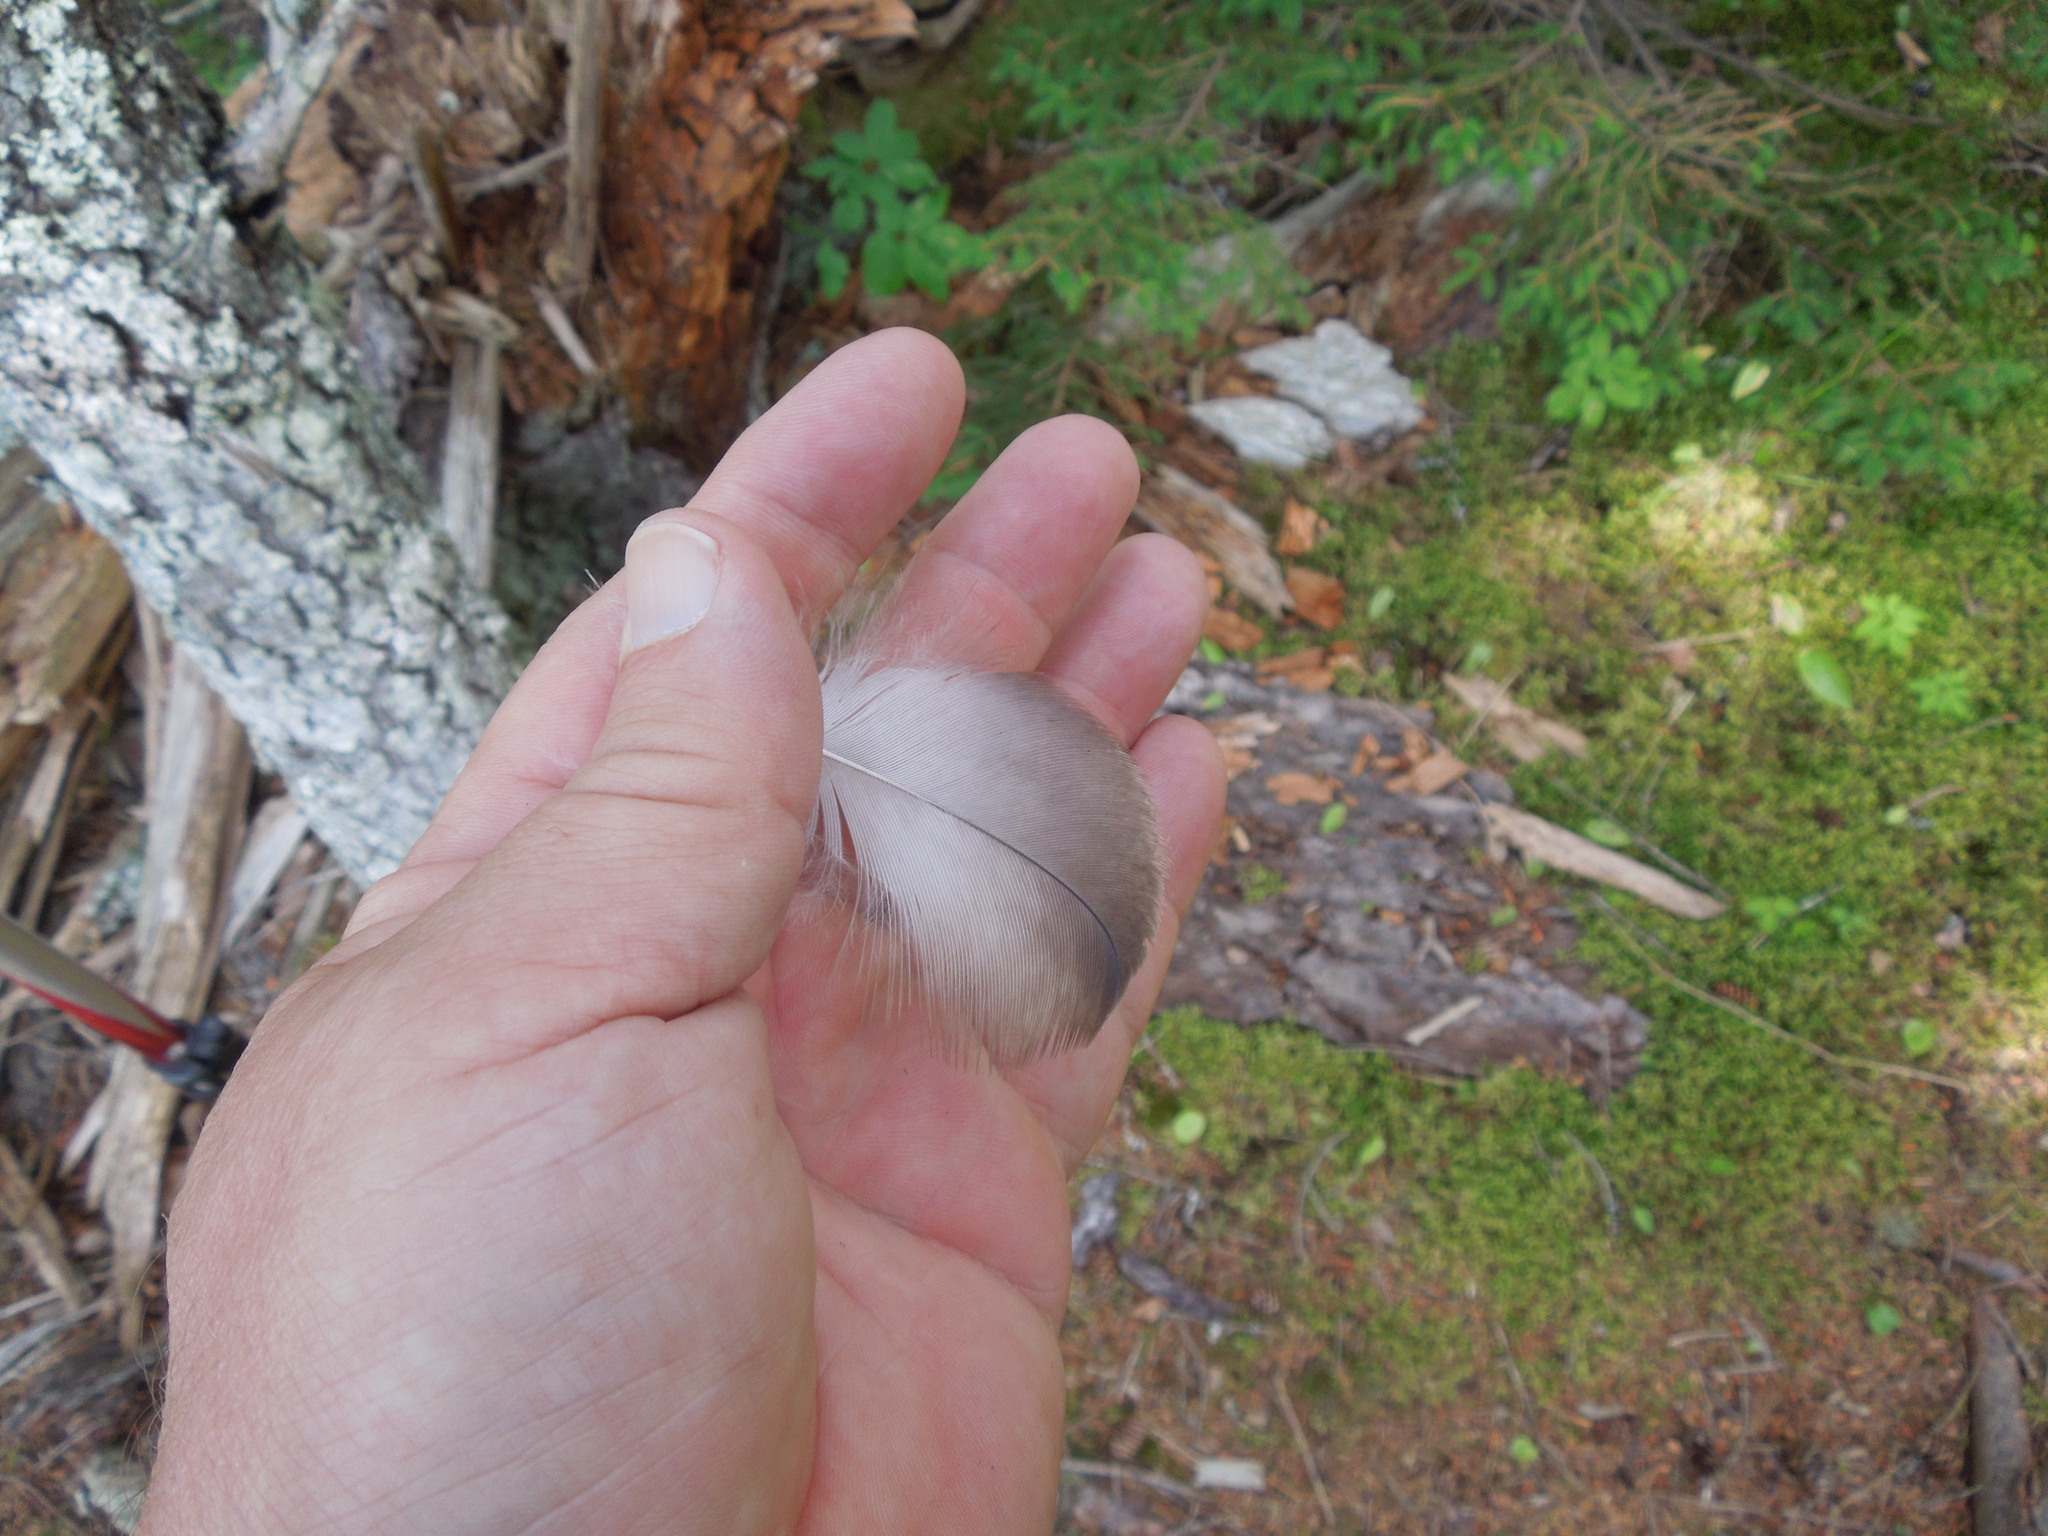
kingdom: Animalia
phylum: Chordata
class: Aves
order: Accipitriformes
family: Accipitridae
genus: Haliaeetus
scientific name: Haliaeetus leucocephalus
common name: Bald eagle
